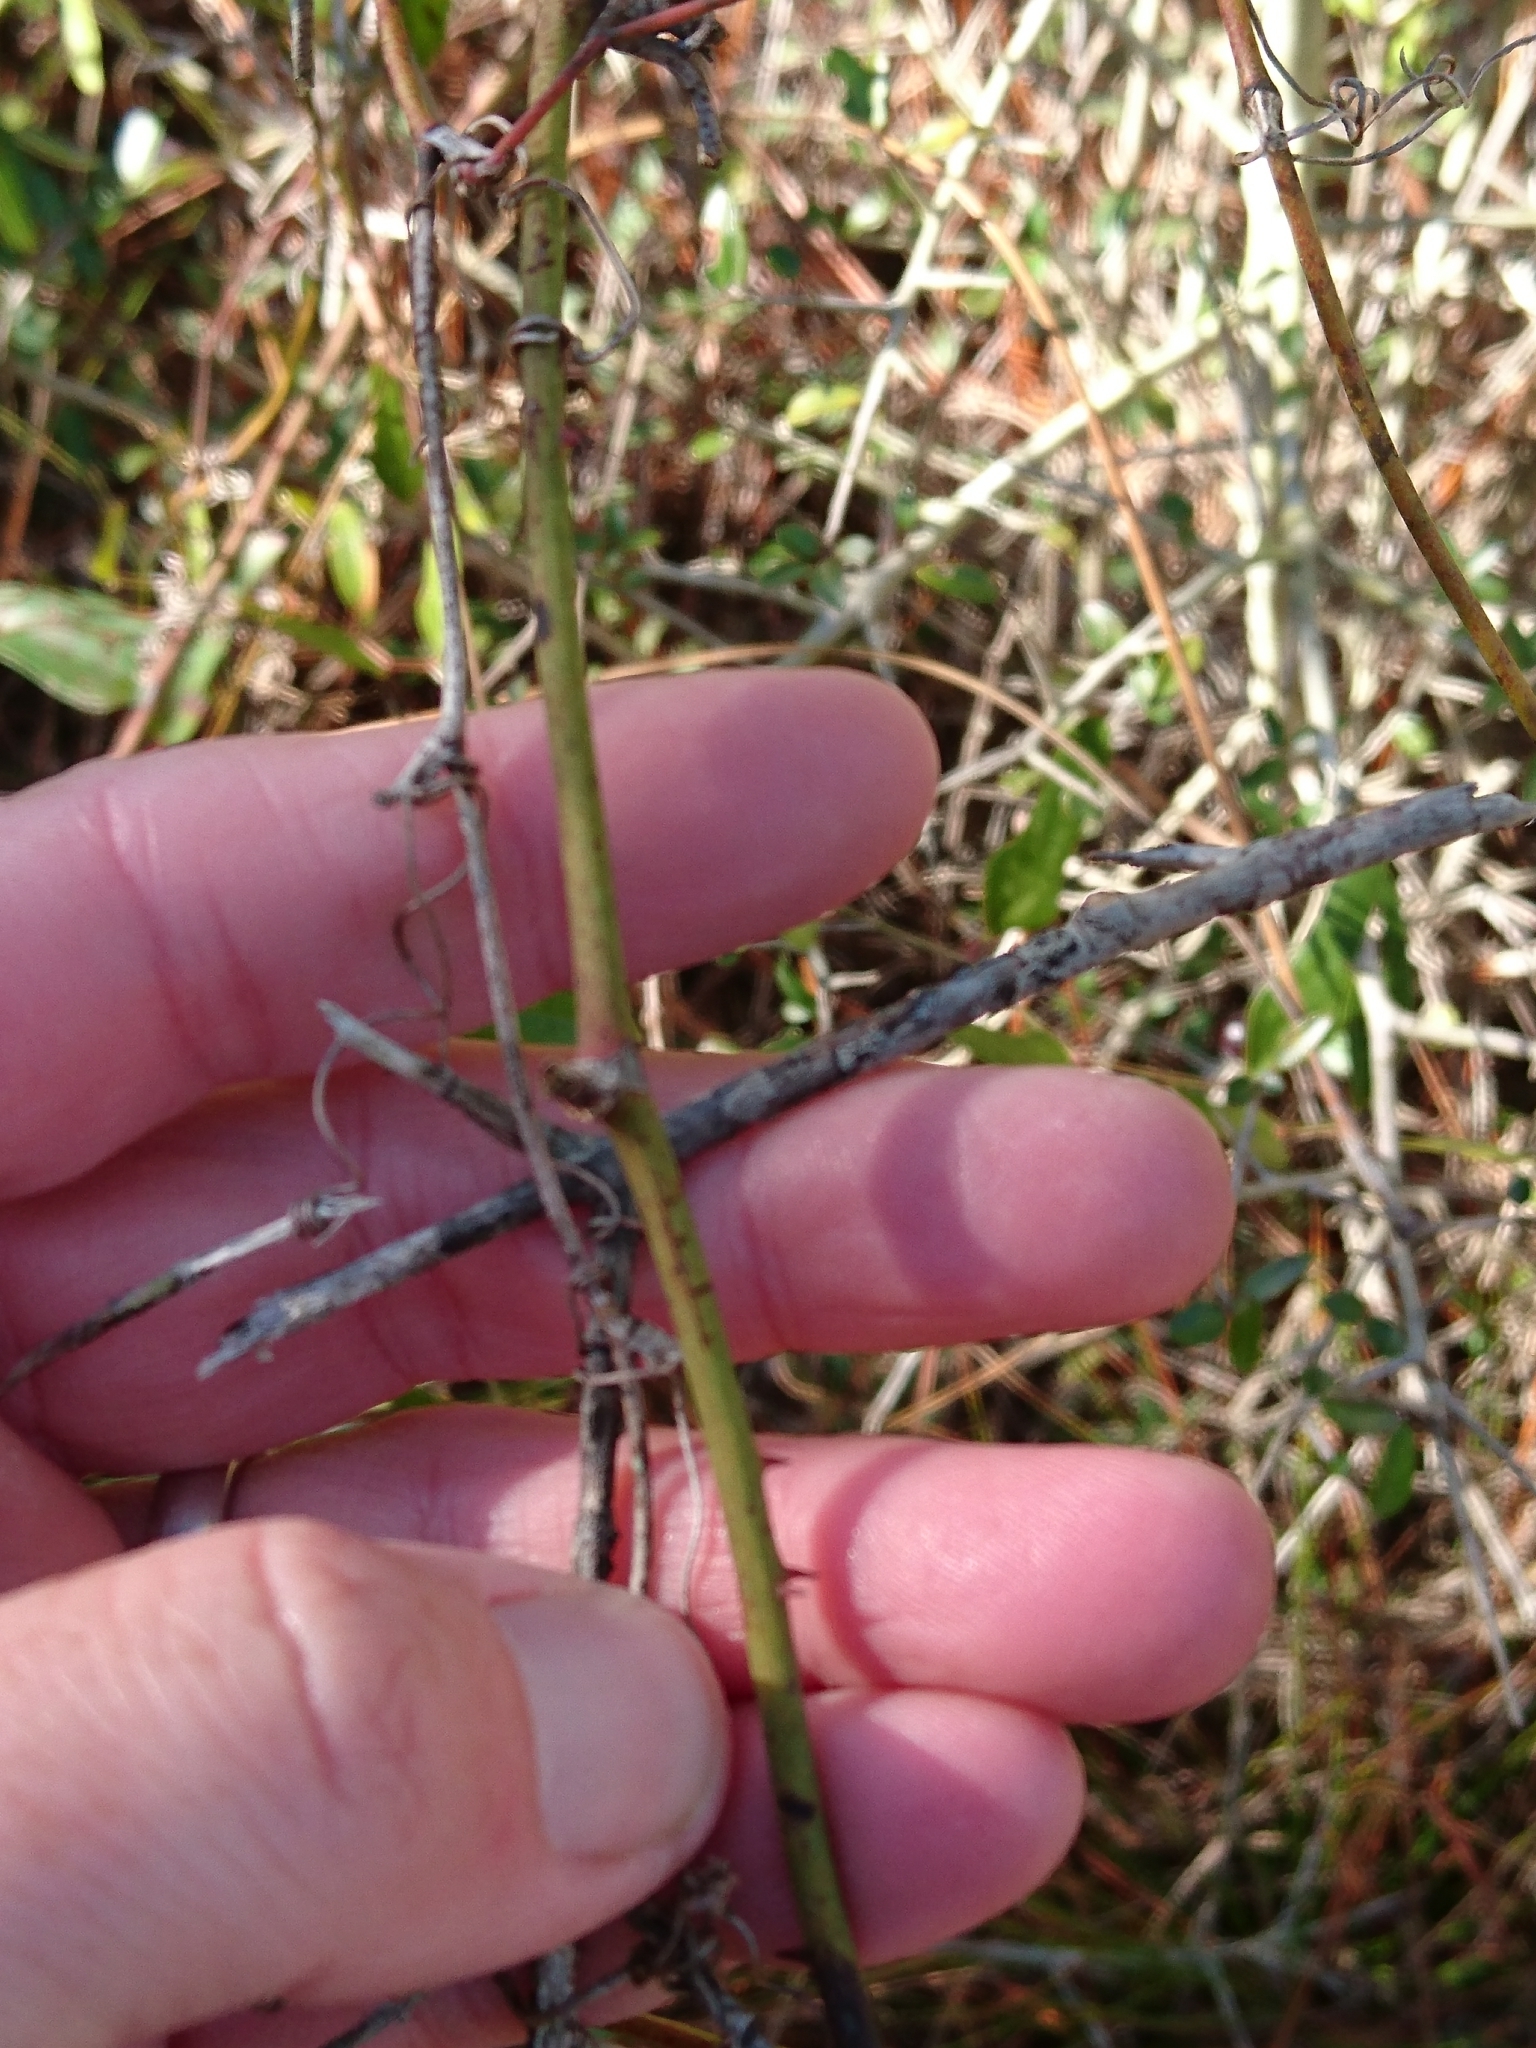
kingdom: Plantae
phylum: Tracheophyta
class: Liliopsida
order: Liliales
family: Smilacaceae
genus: Smilax
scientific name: Smilax auriculata
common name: Wild bamboo
